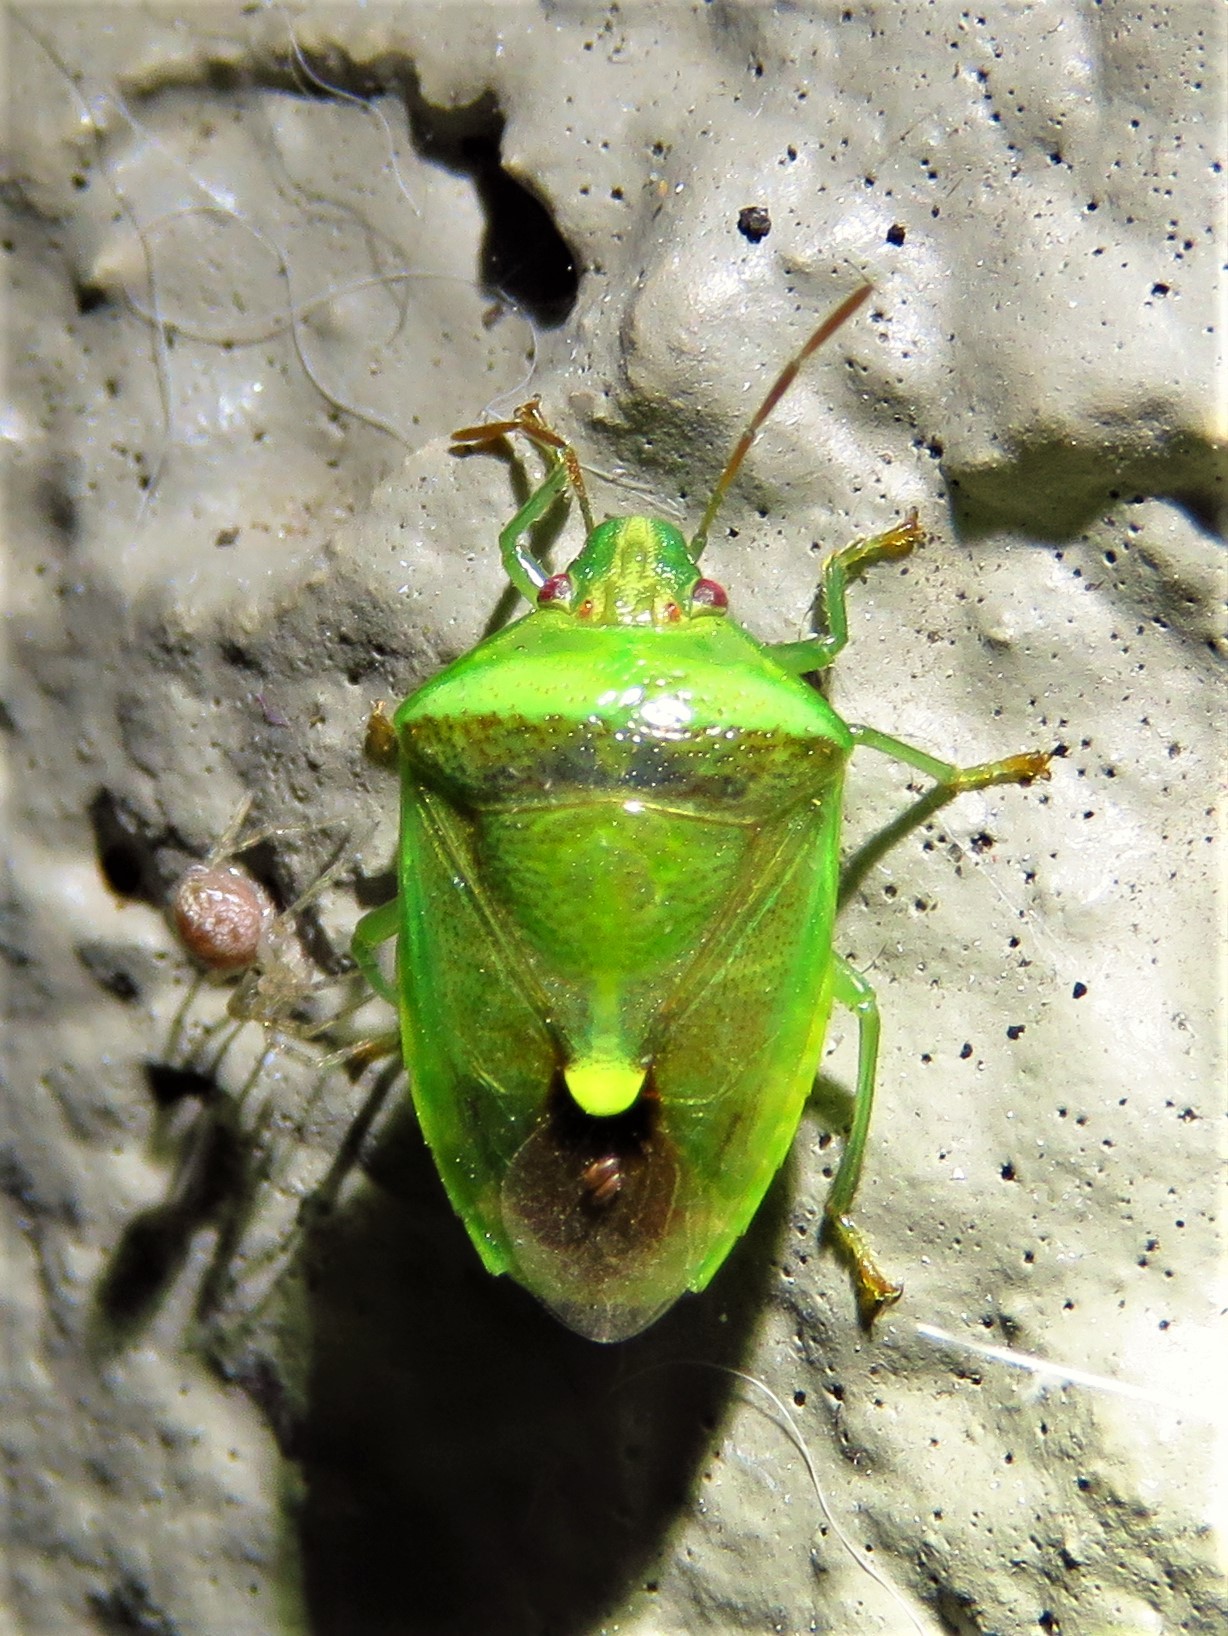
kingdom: Animalia
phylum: Arthropoda
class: Insecta
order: Hemiptera
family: Pentatomidae
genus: Banasa
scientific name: Banasa dimidiata
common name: Green burgundy stink bug
